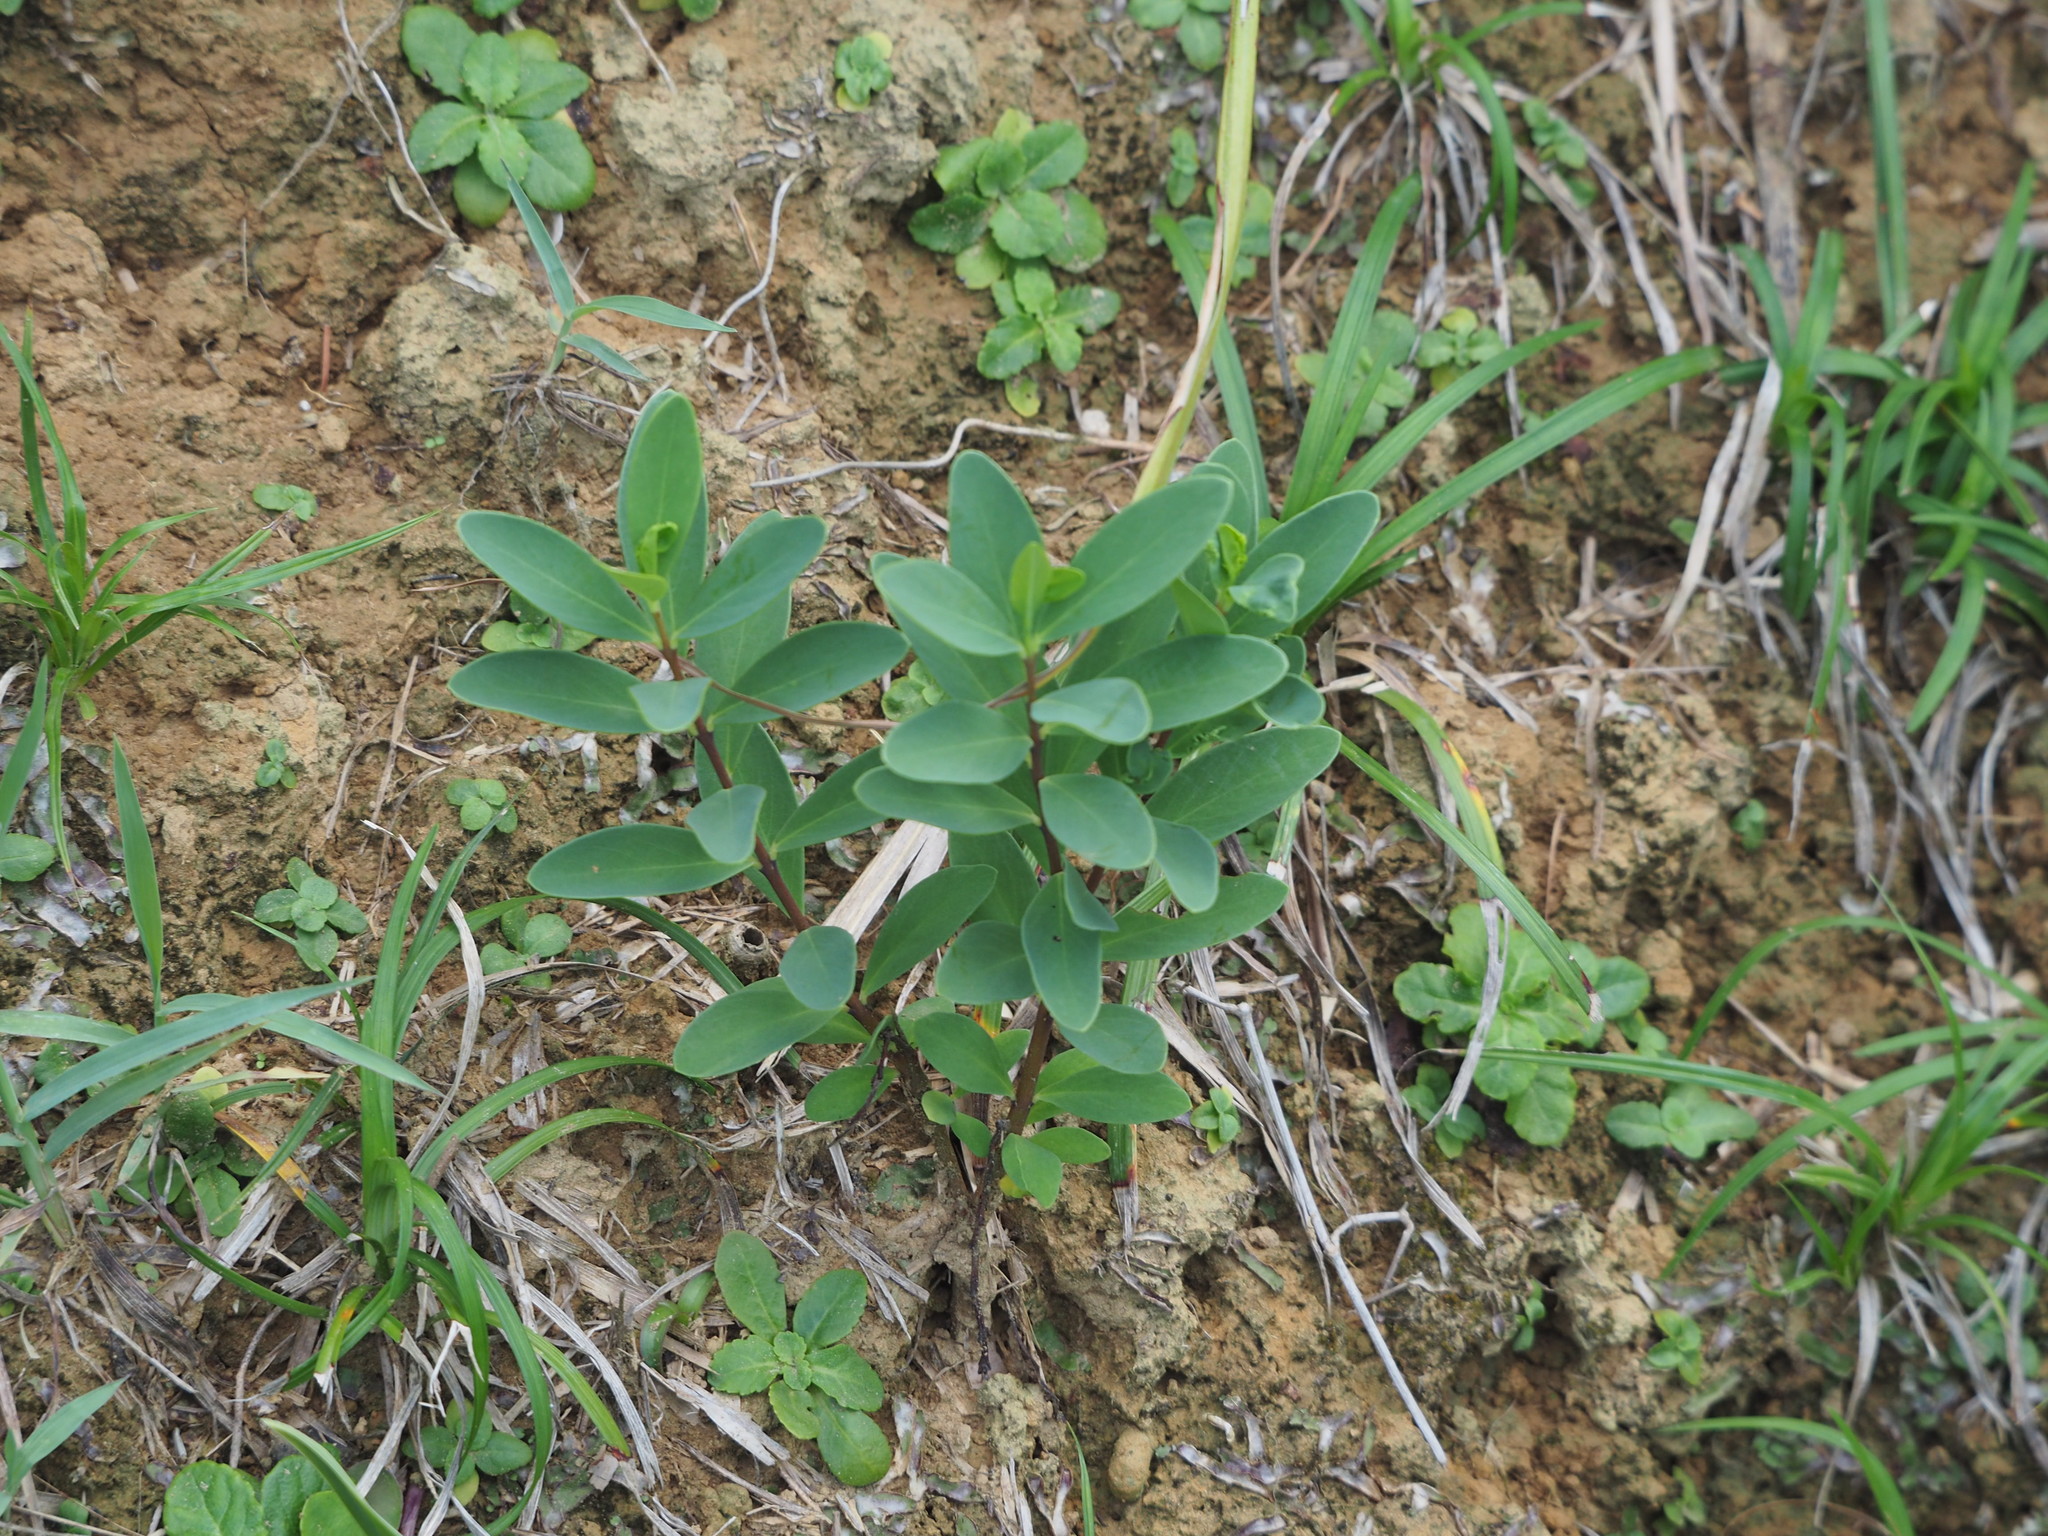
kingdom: Plantae
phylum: Tracheophyta
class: Magnoliopsida
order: Malvales
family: Thymelaeaceae
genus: Wikstroemia
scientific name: Wikstroemia indica
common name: Tiebush
